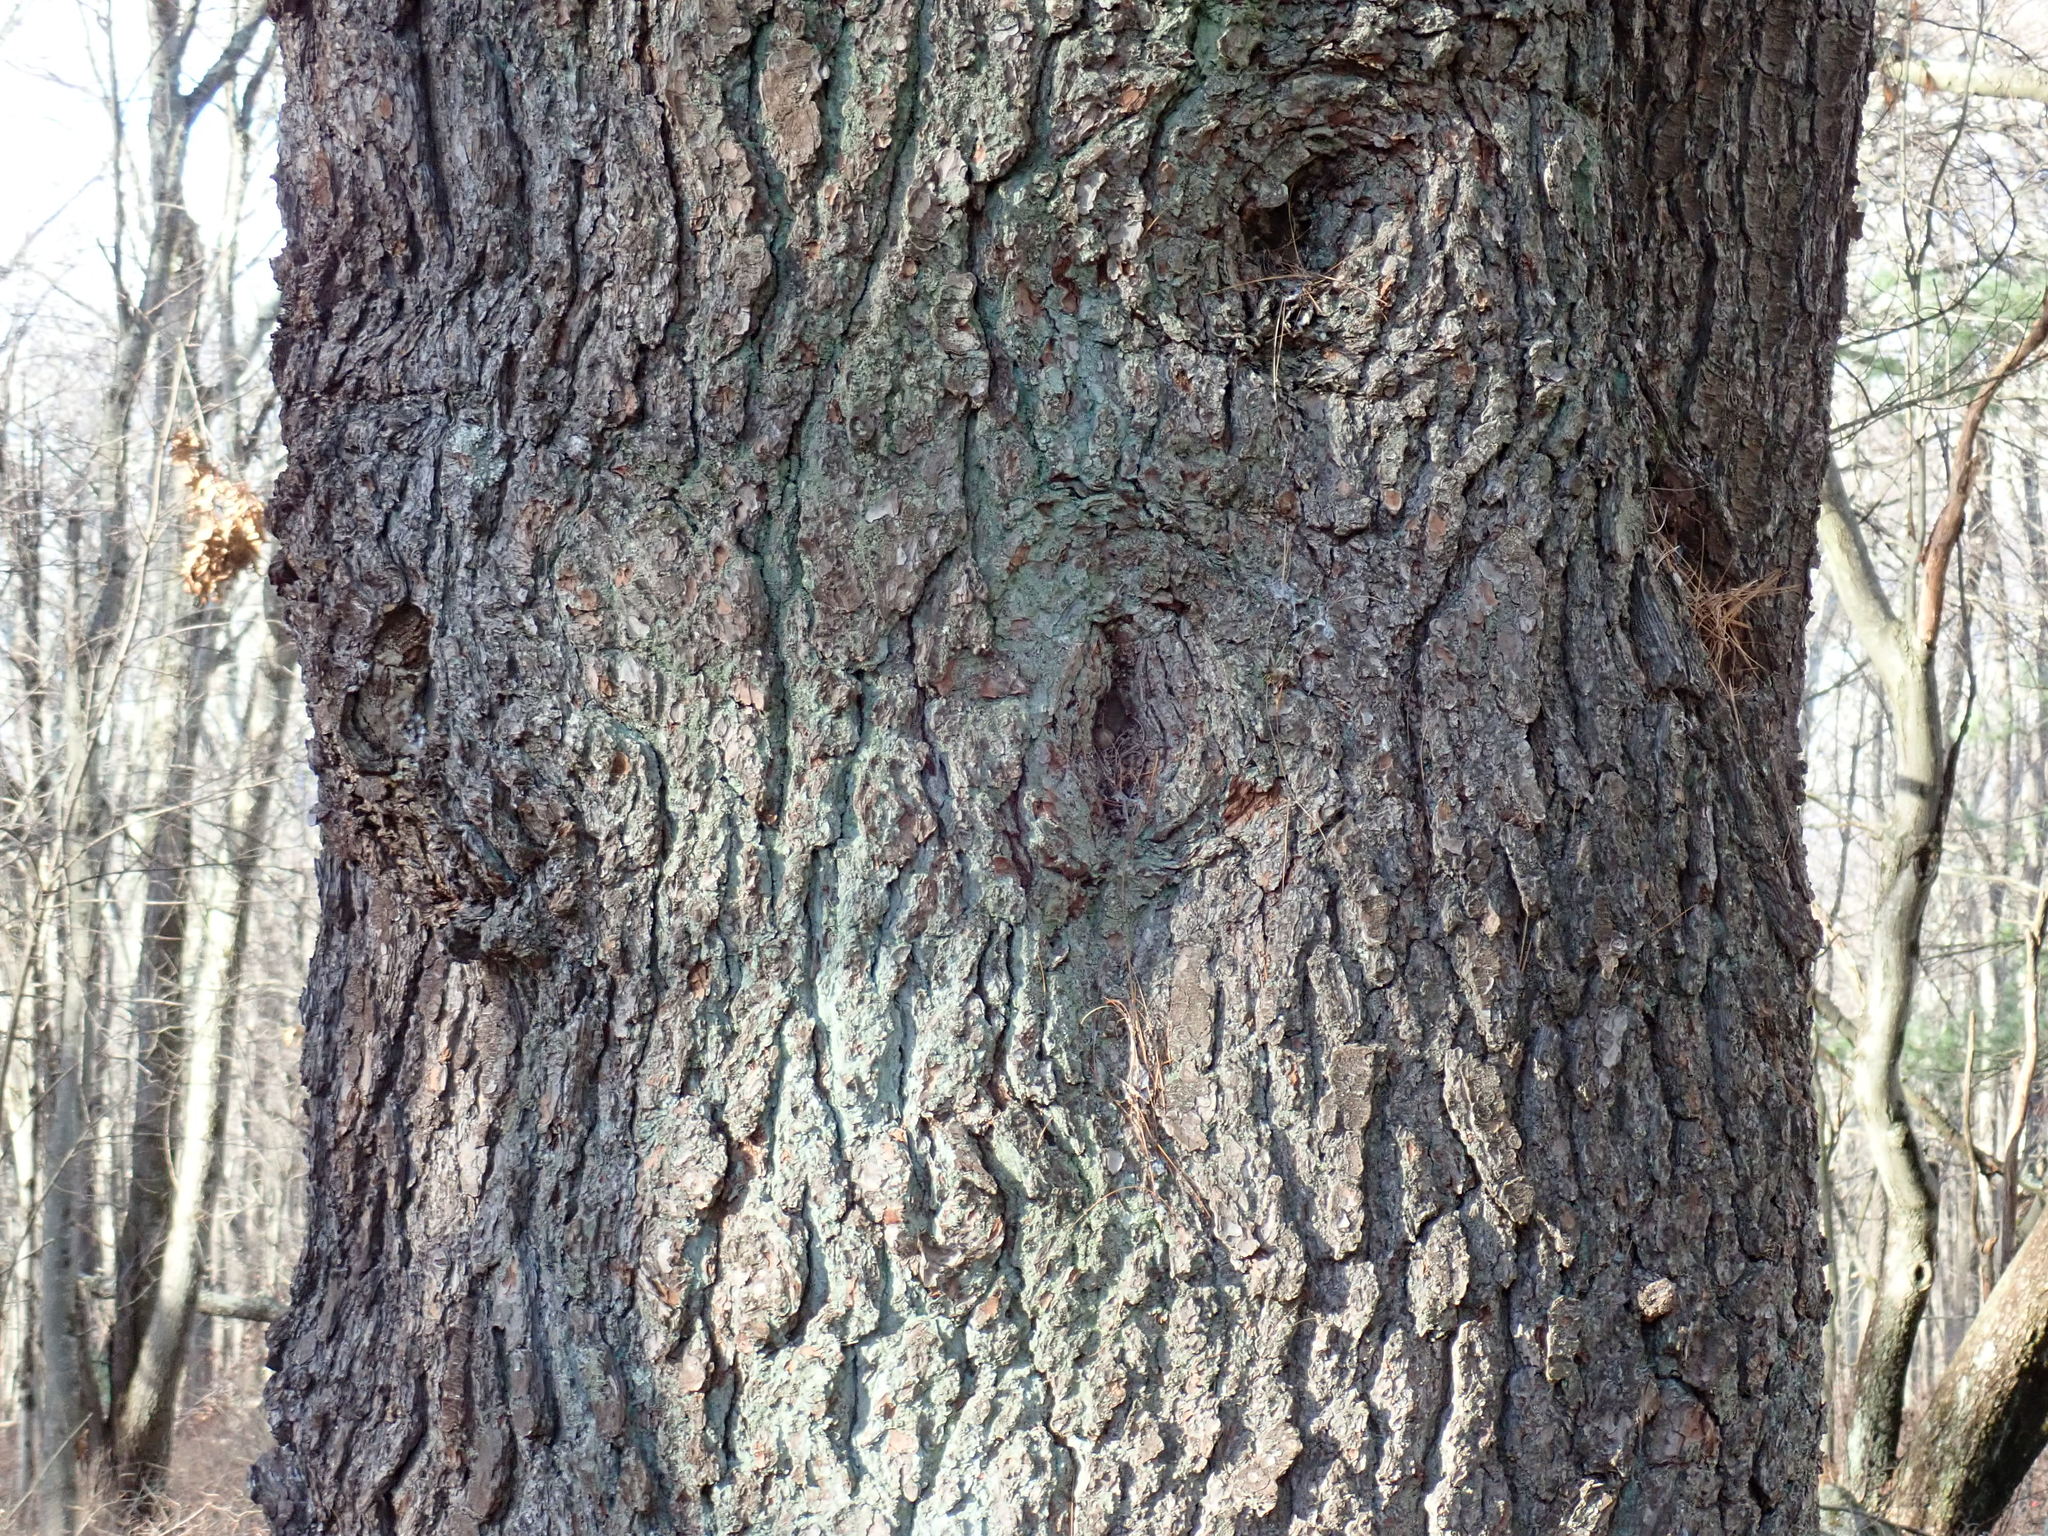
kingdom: Plantae
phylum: Tracheophyta
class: Pinopsida
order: Pinales
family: Pinaceae
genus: Pinus
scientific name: Pinus strobus
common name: Weymouth pine
